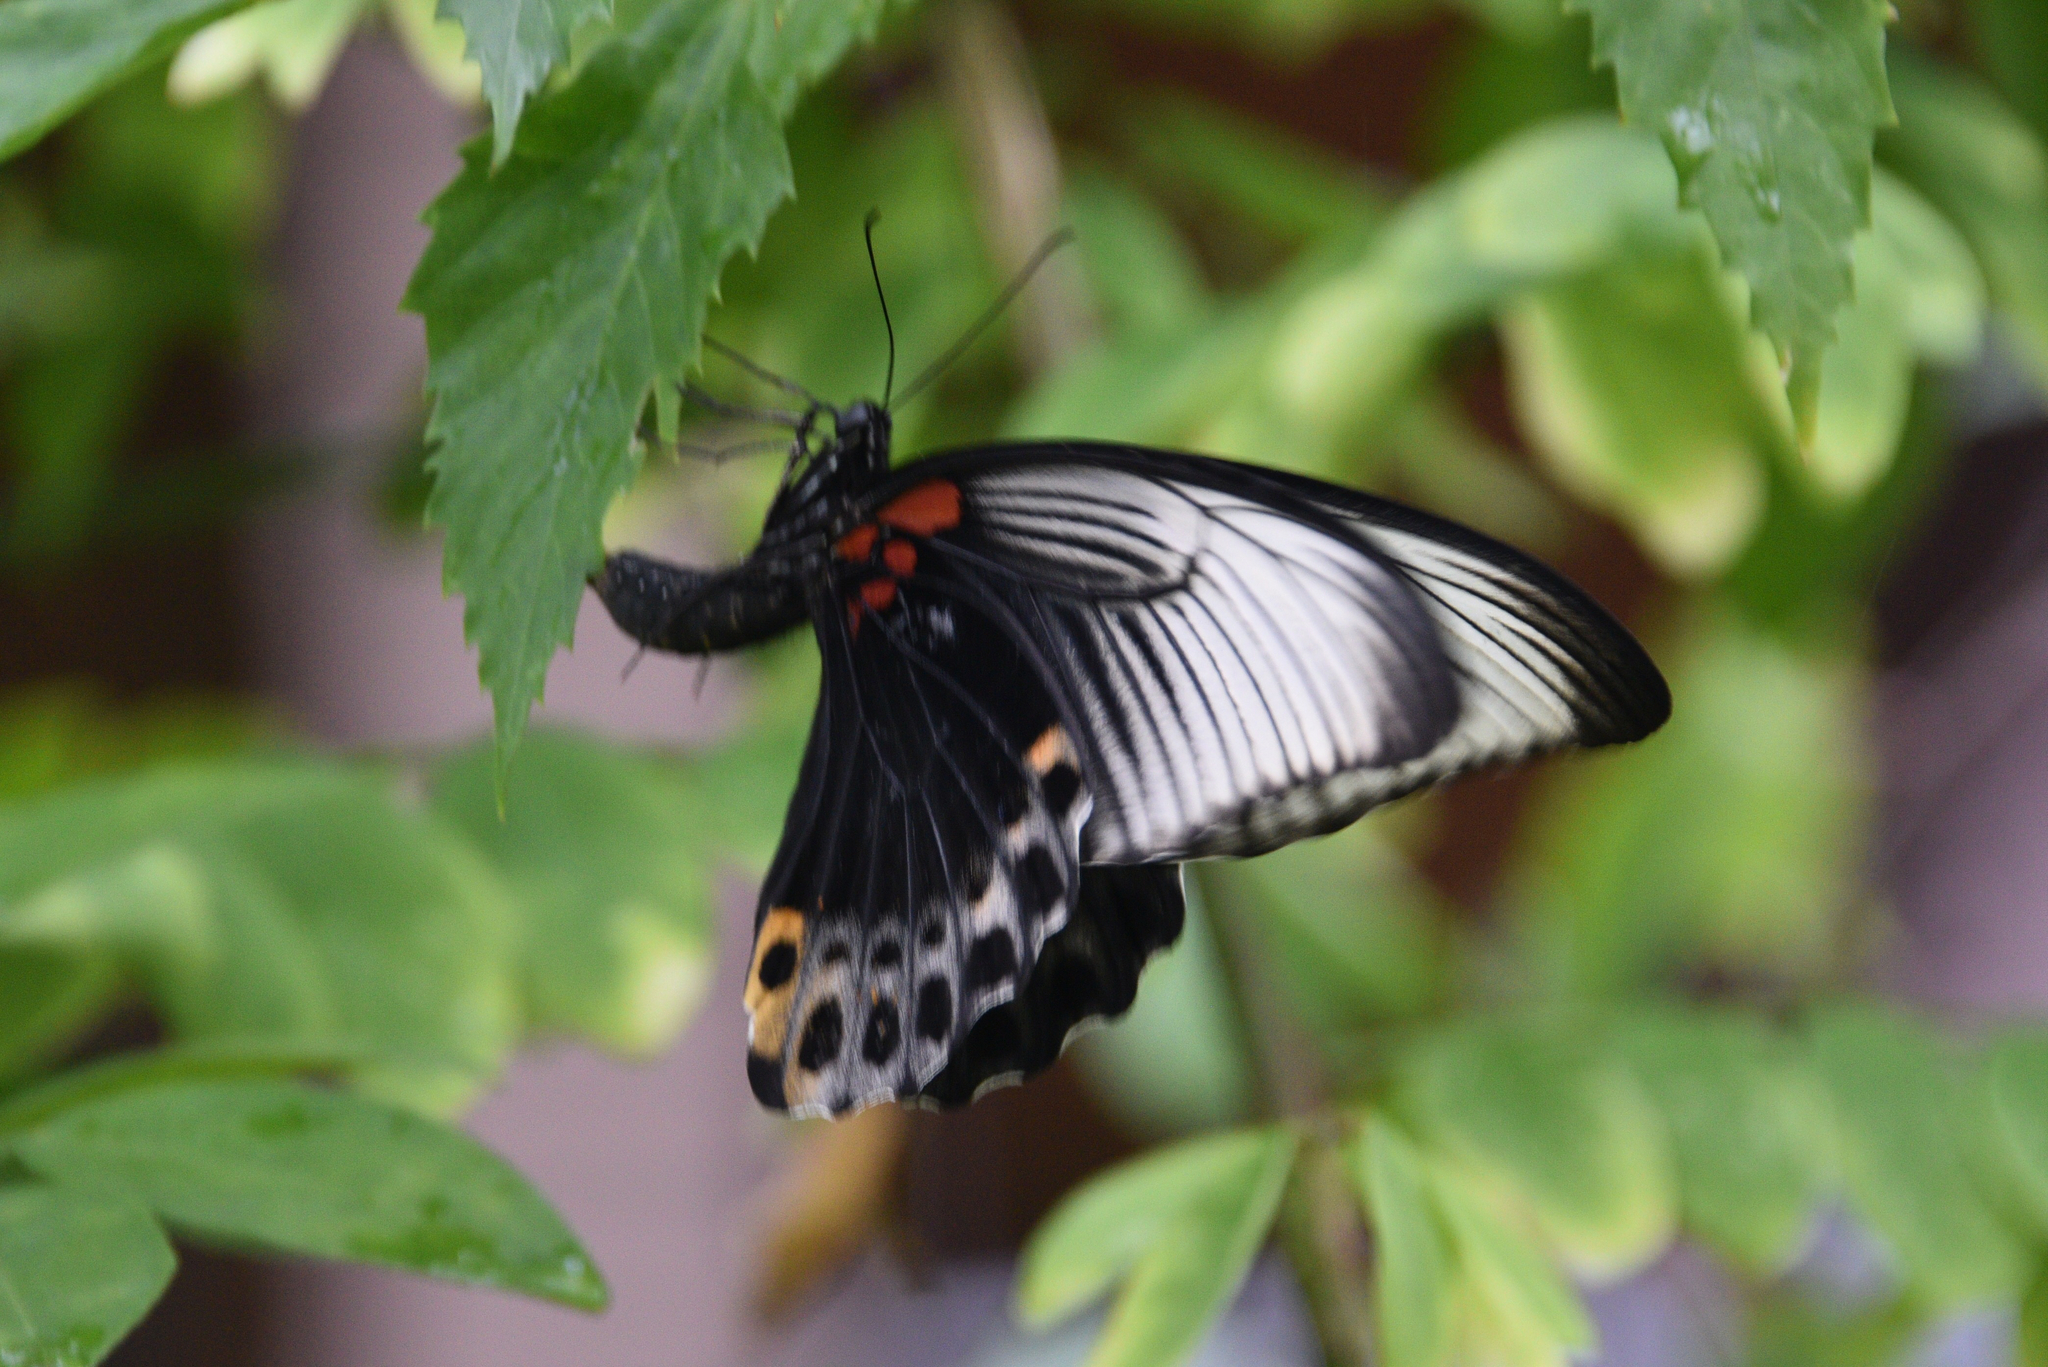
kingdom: Animalia
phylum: Arthropoda
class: Insecta
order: Lepidoptera
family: Papilionidae
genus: Papilio
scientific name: Papilio memnon
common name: Great mormon
